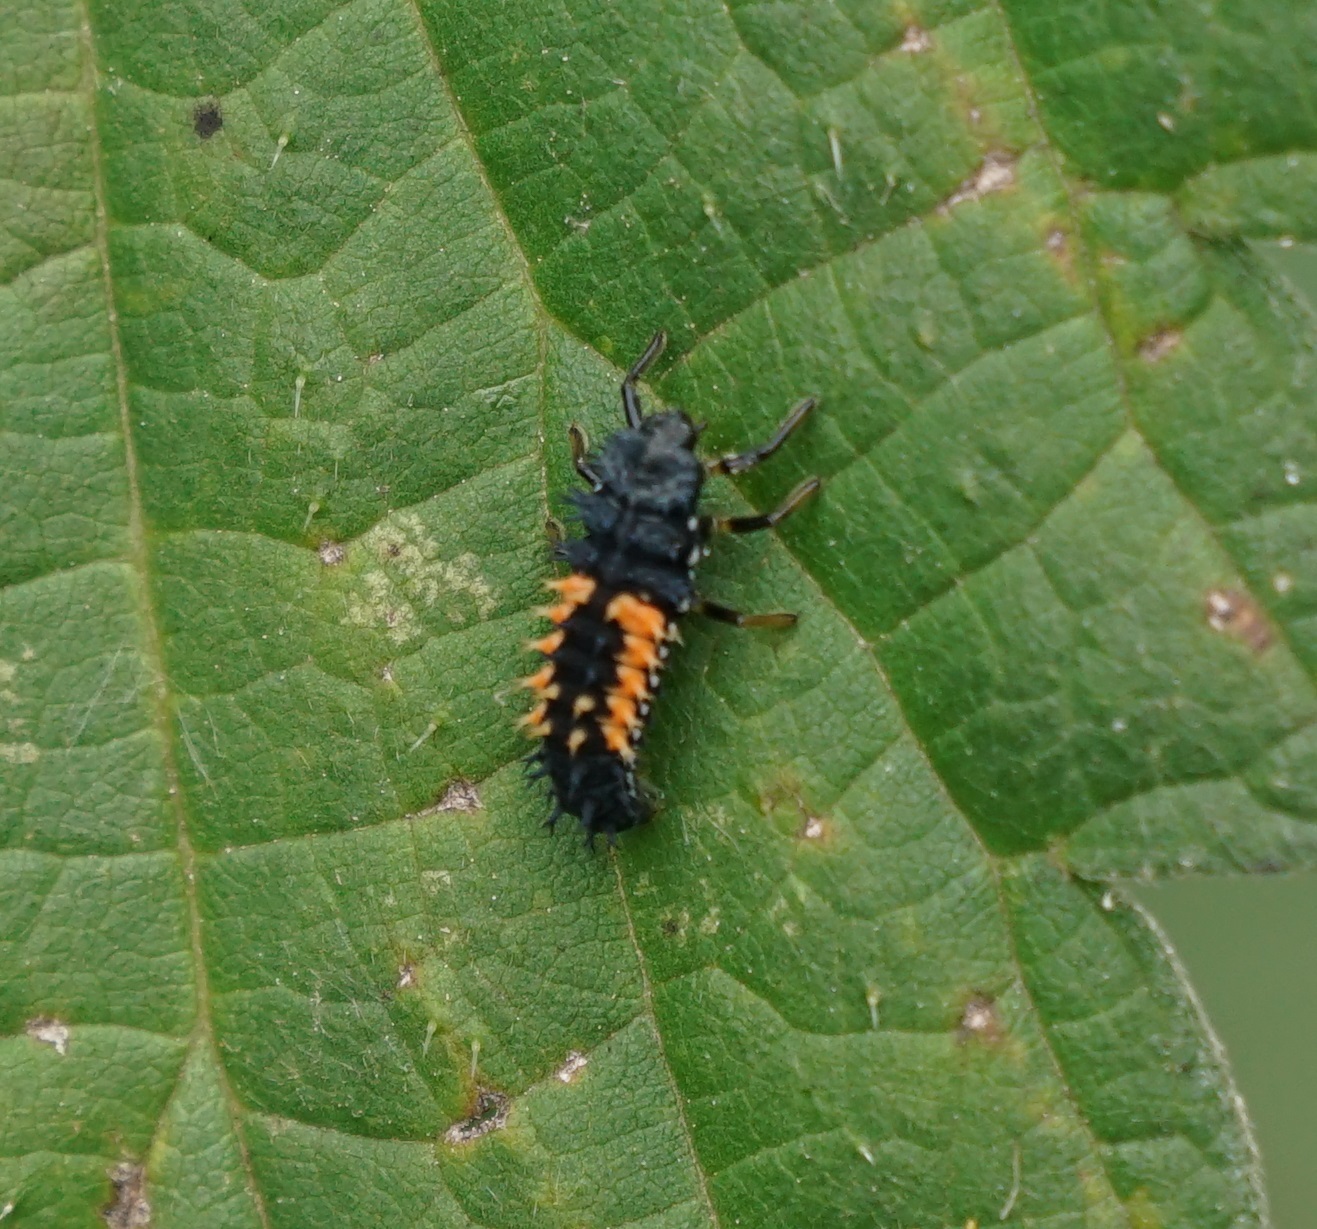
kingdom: Animalia
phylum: Arthropoda
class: Insecta
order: Coleoptera
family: Coccinellidae
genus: Harmonia
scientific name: Harmonia axyridis
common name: Harlequin ladybird
